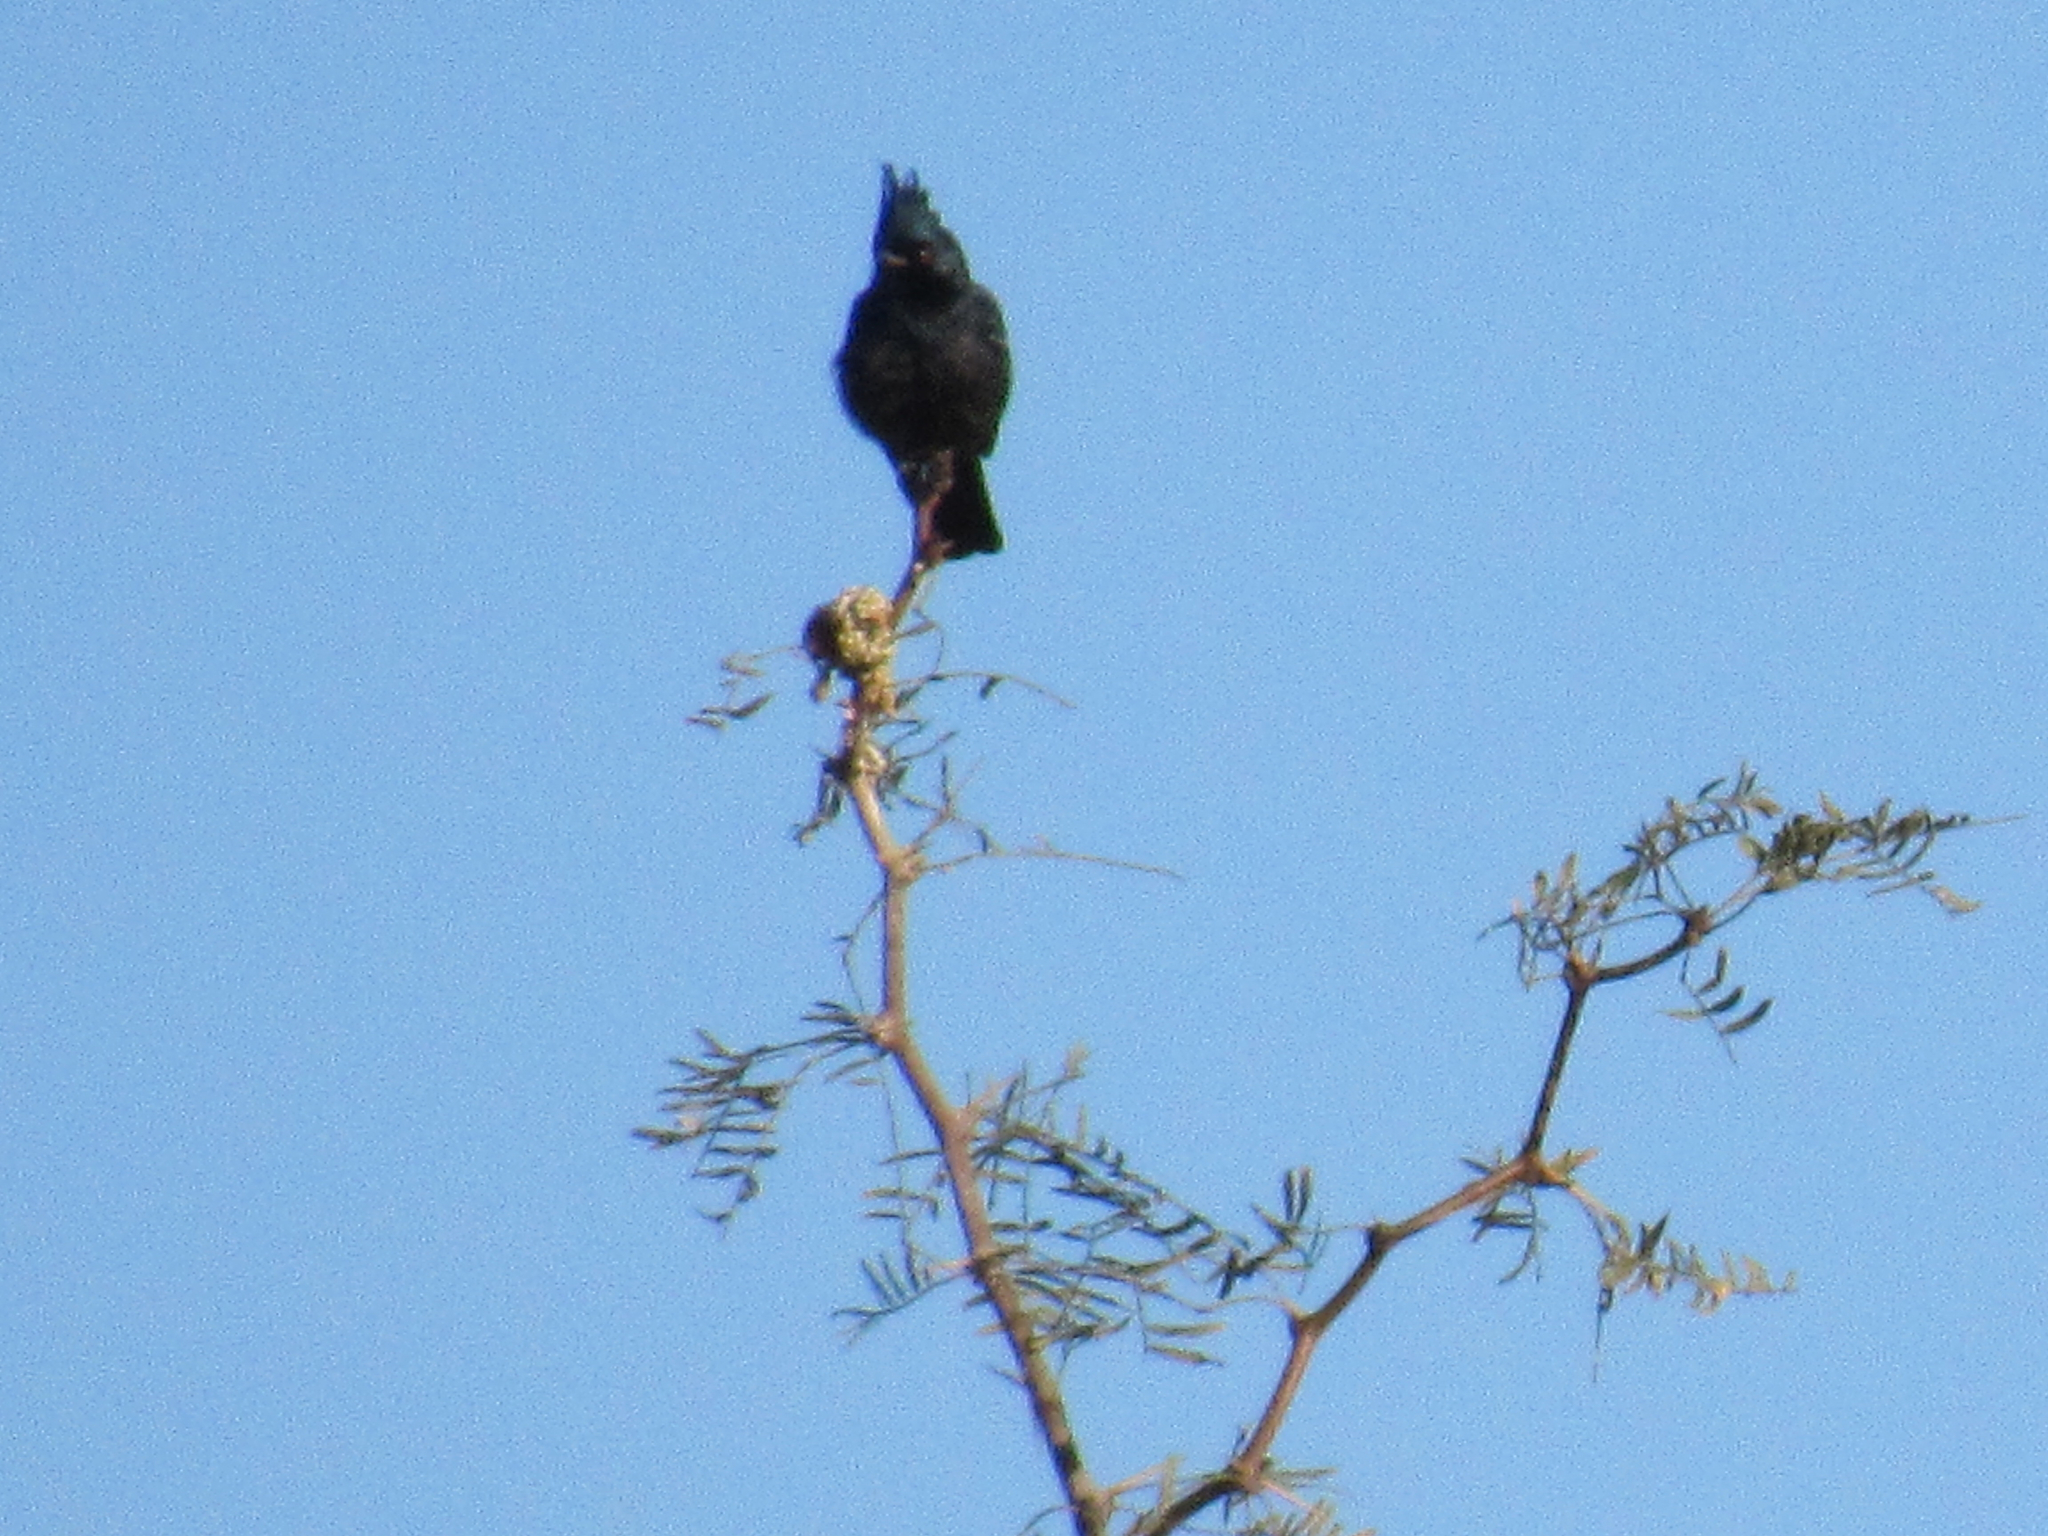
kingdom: Animalia
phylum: Chordata
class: Aves
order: Passeriformes
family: Ptilogonatidae
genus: Phainopepla
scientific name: Phainopepla nitens
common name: Phainopepla
